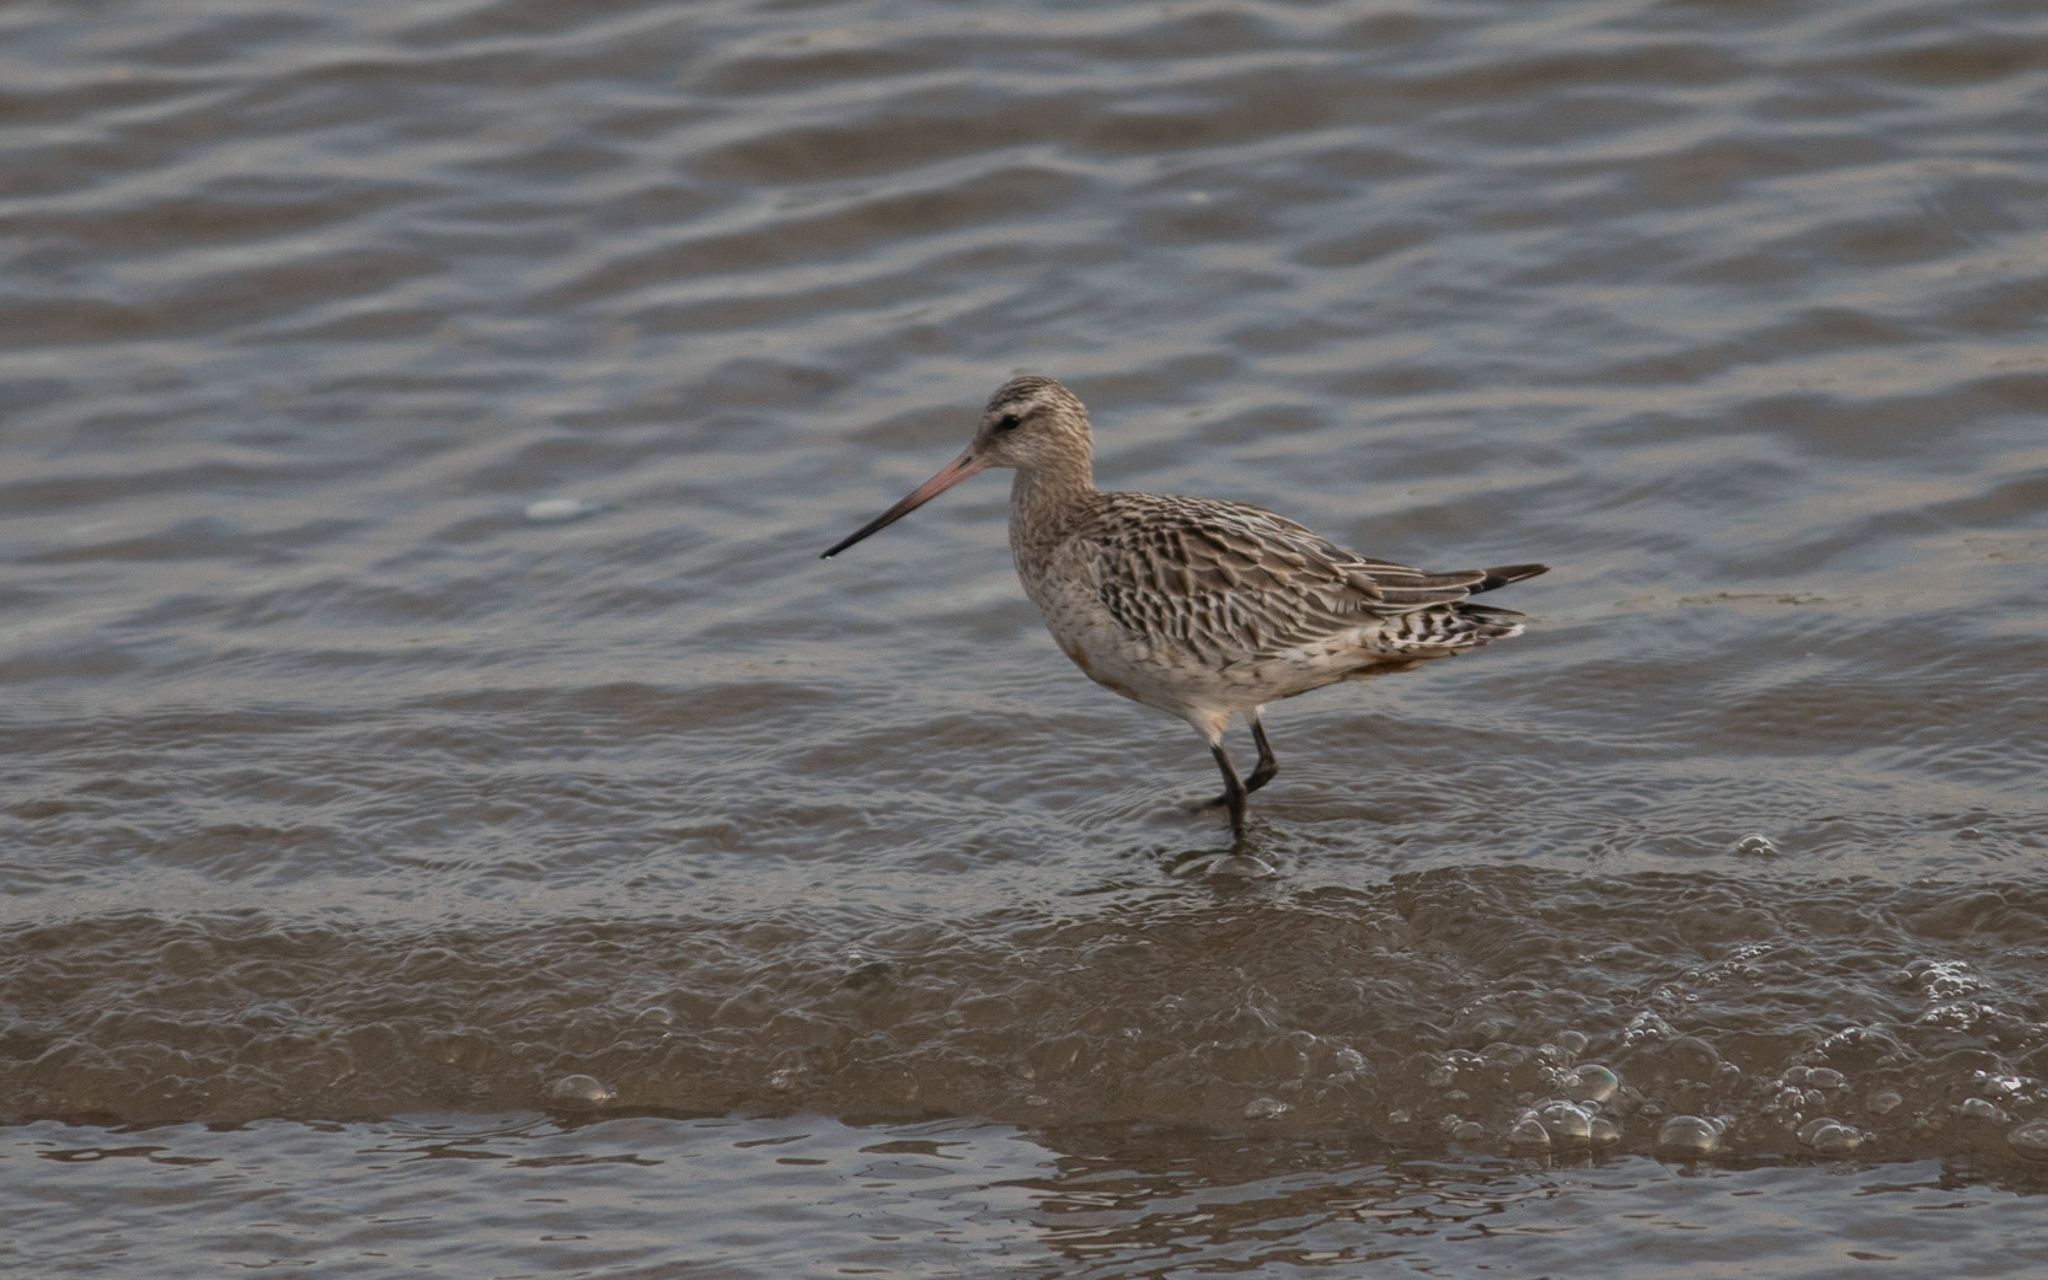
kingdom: Animalia
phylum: Chordata
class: Aves
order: Charadriiformes
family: Scolopacidae
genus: Limosa
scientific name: Limosa lapponica
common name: Bar-tailed godwit
